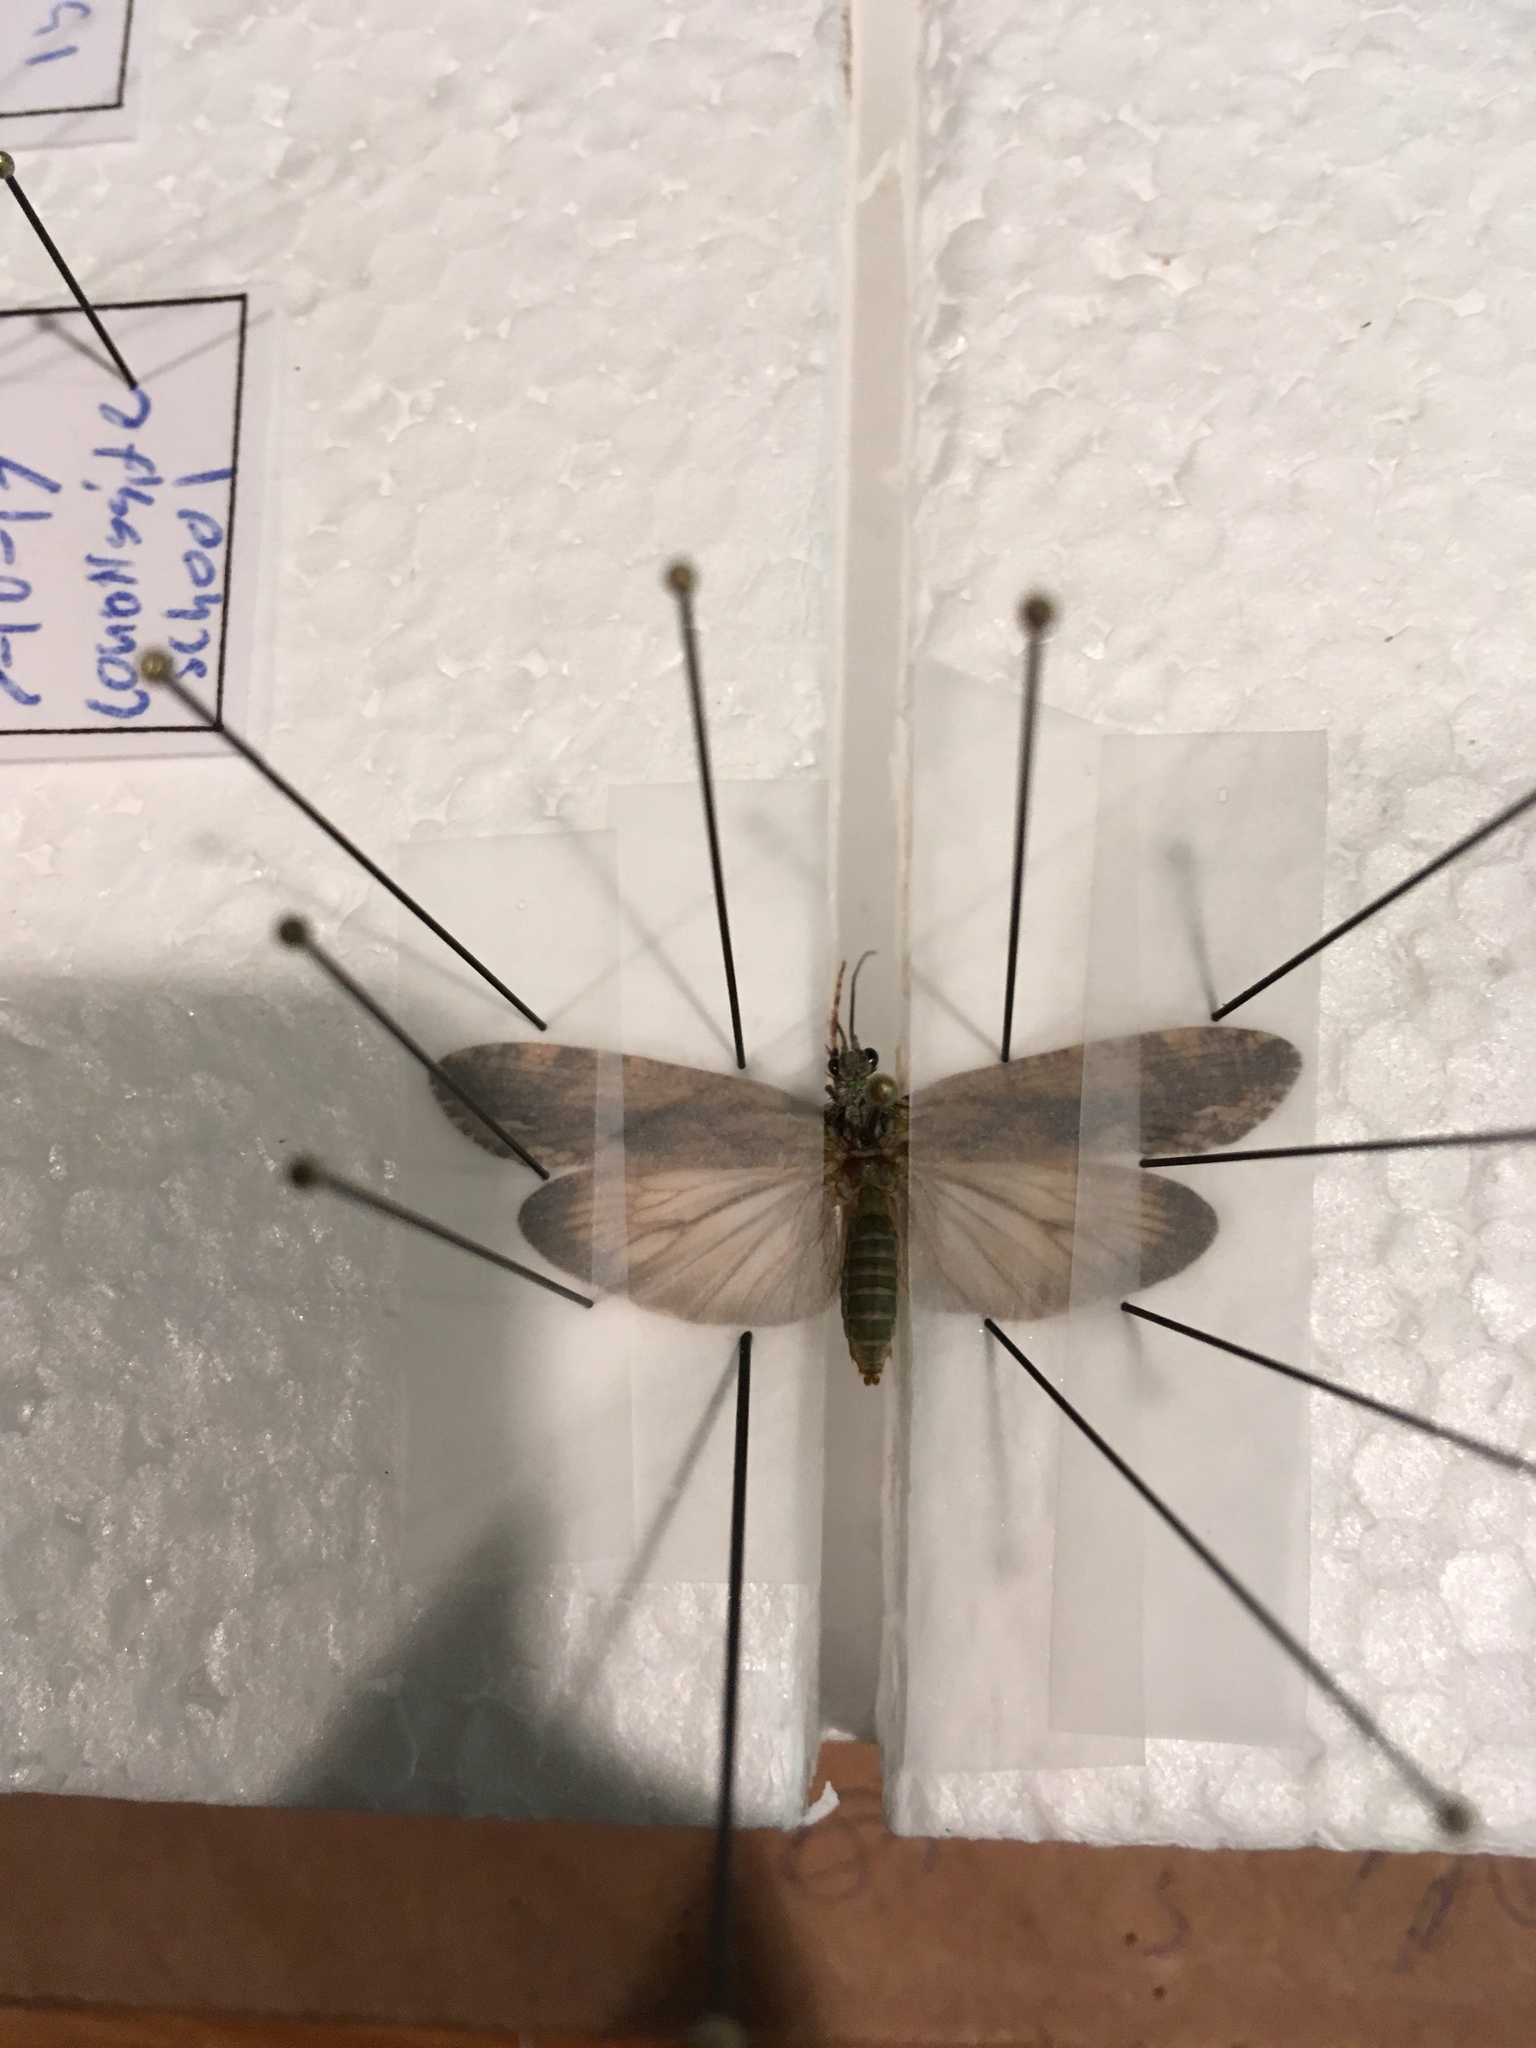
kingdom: Animalia
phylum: Arthropoda
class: Insecta
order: Trichoptera
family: Phryganeidae
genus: Phryganea
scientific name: Phryganea sayi
